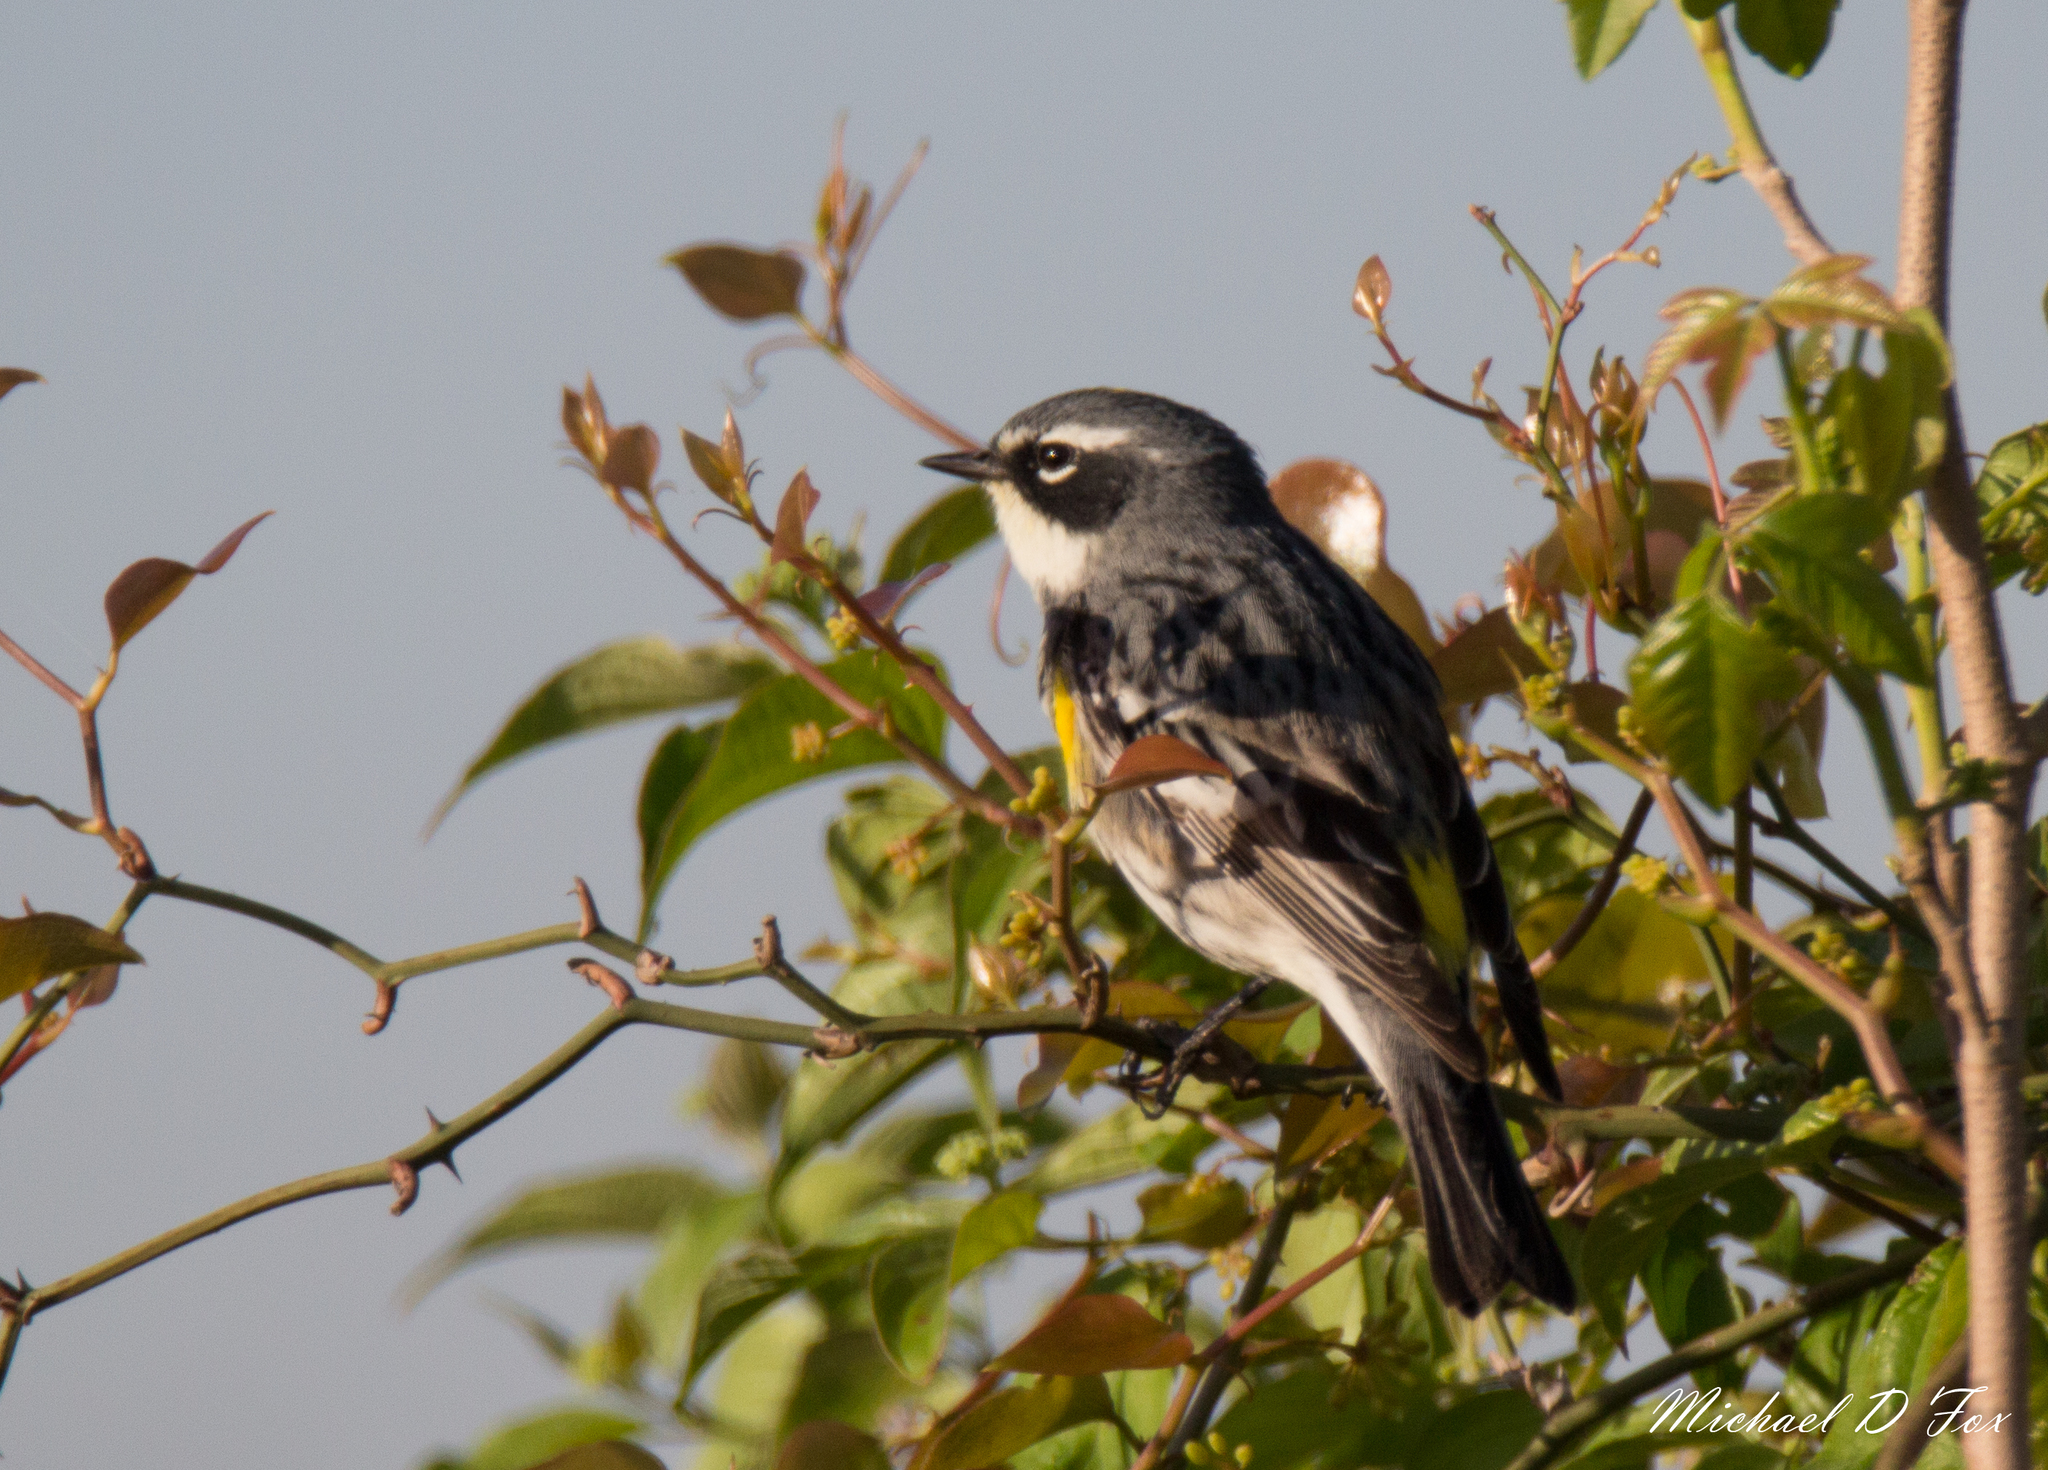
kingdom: Animalia
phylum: Chordata
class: Aves
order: Passeriformes
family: Parulidae
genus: Setophaga
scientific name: Setophaga coronata
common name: Myrtle warbler
